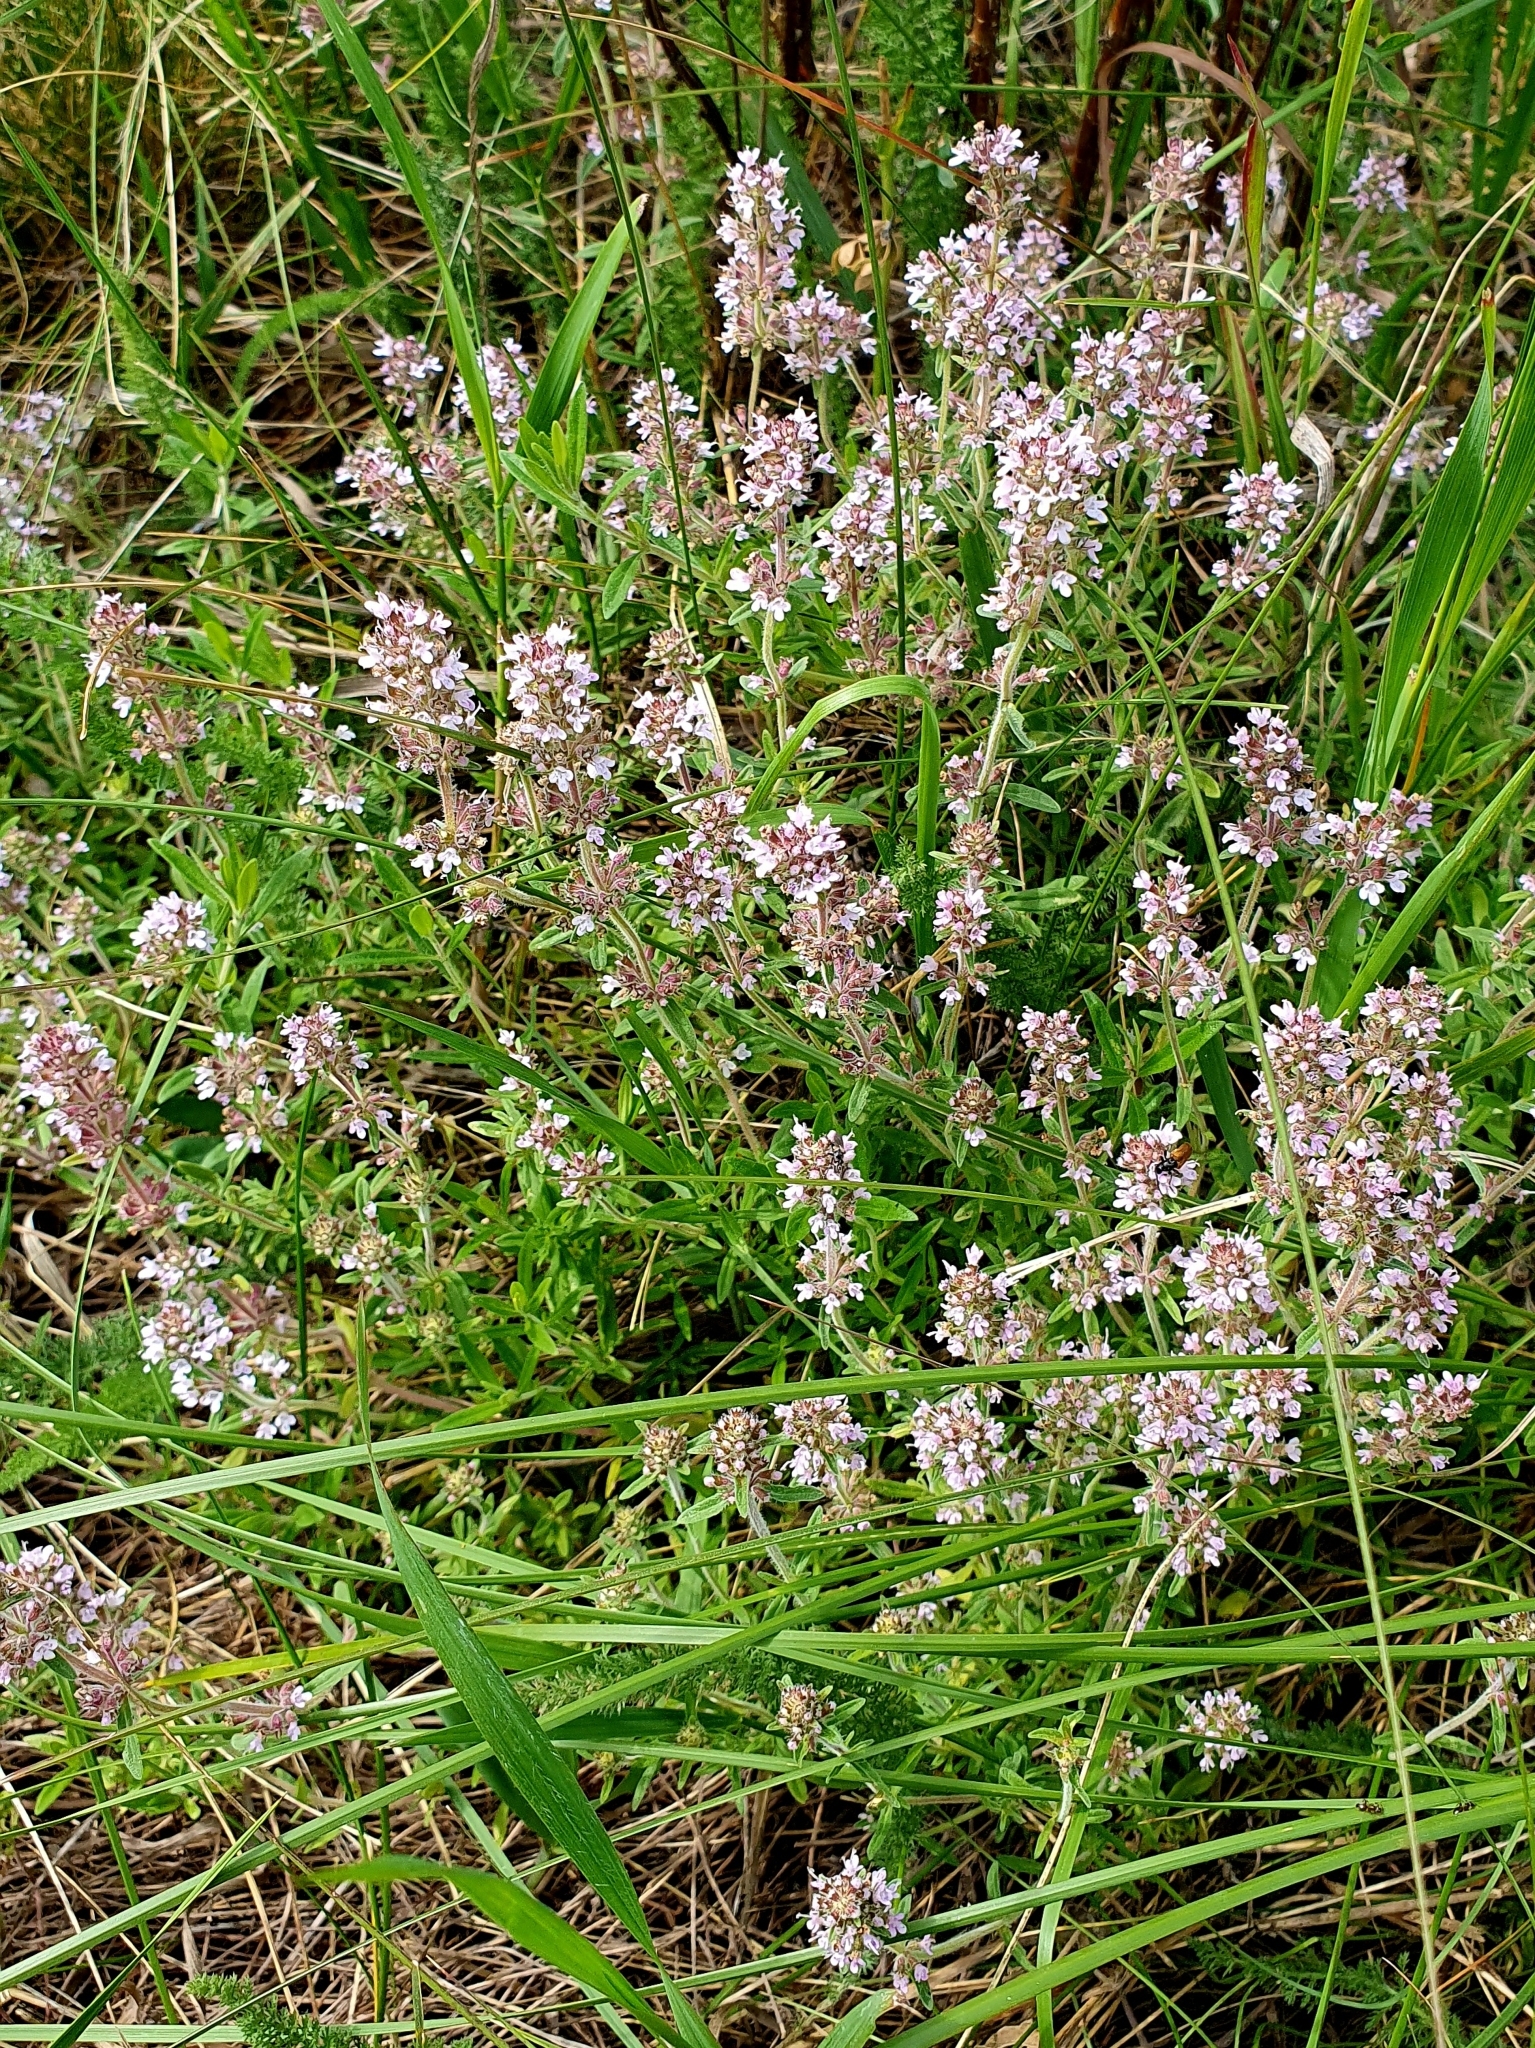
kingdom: Plantae
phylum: Tracheophyta
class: Magnoliopsida
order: Lamiales
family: Lamiaceae
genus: Thymus
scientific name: Thymus pannonicus
